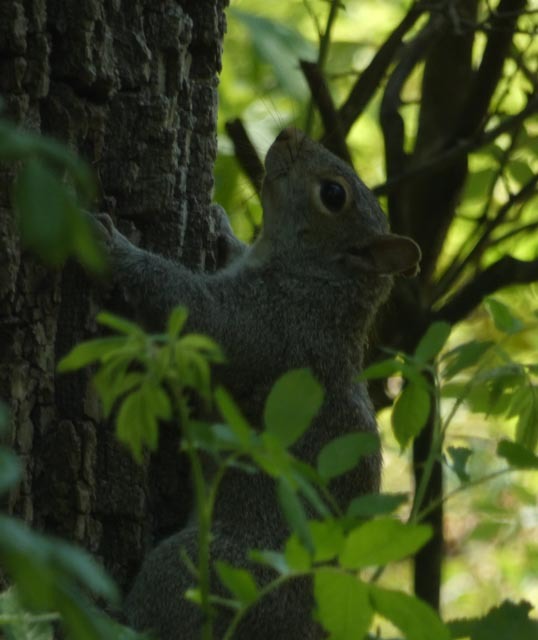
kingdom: Animalia
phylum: Chordata
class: Mammalia
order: Rodentia
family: Sciuridae
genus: Sciurus
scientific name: Sciurus carolinensis
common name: Eastern gray squirrel
